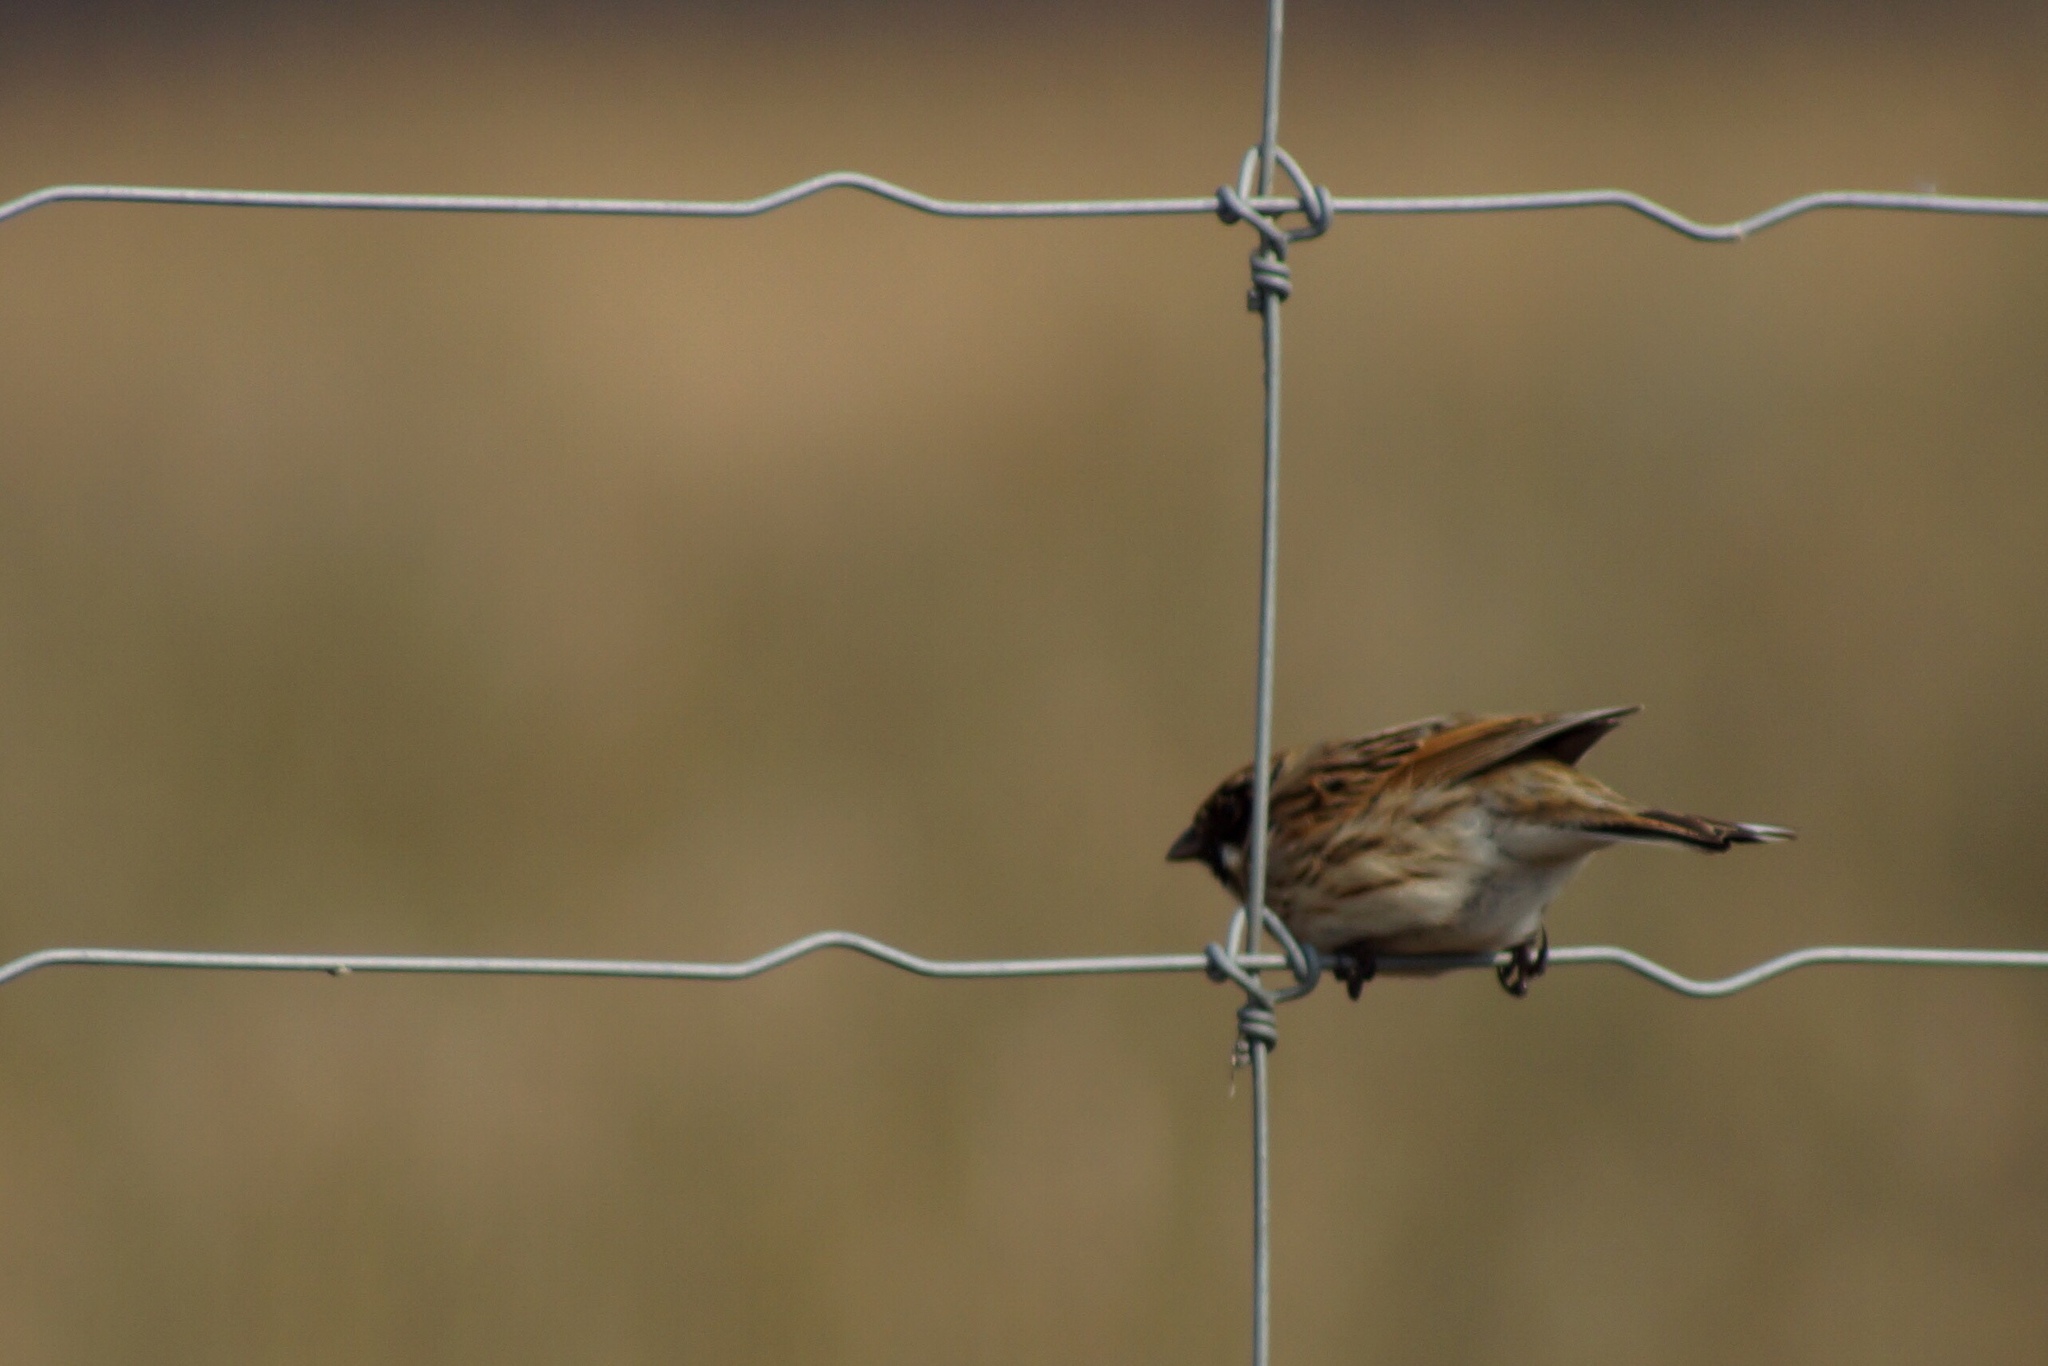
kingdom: Animalia
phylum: Chordata
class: Aves
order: Passeriformes
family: Emberizidae
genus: Emberiza
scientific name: Emberiza schoeniclus
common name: Reed bunting
